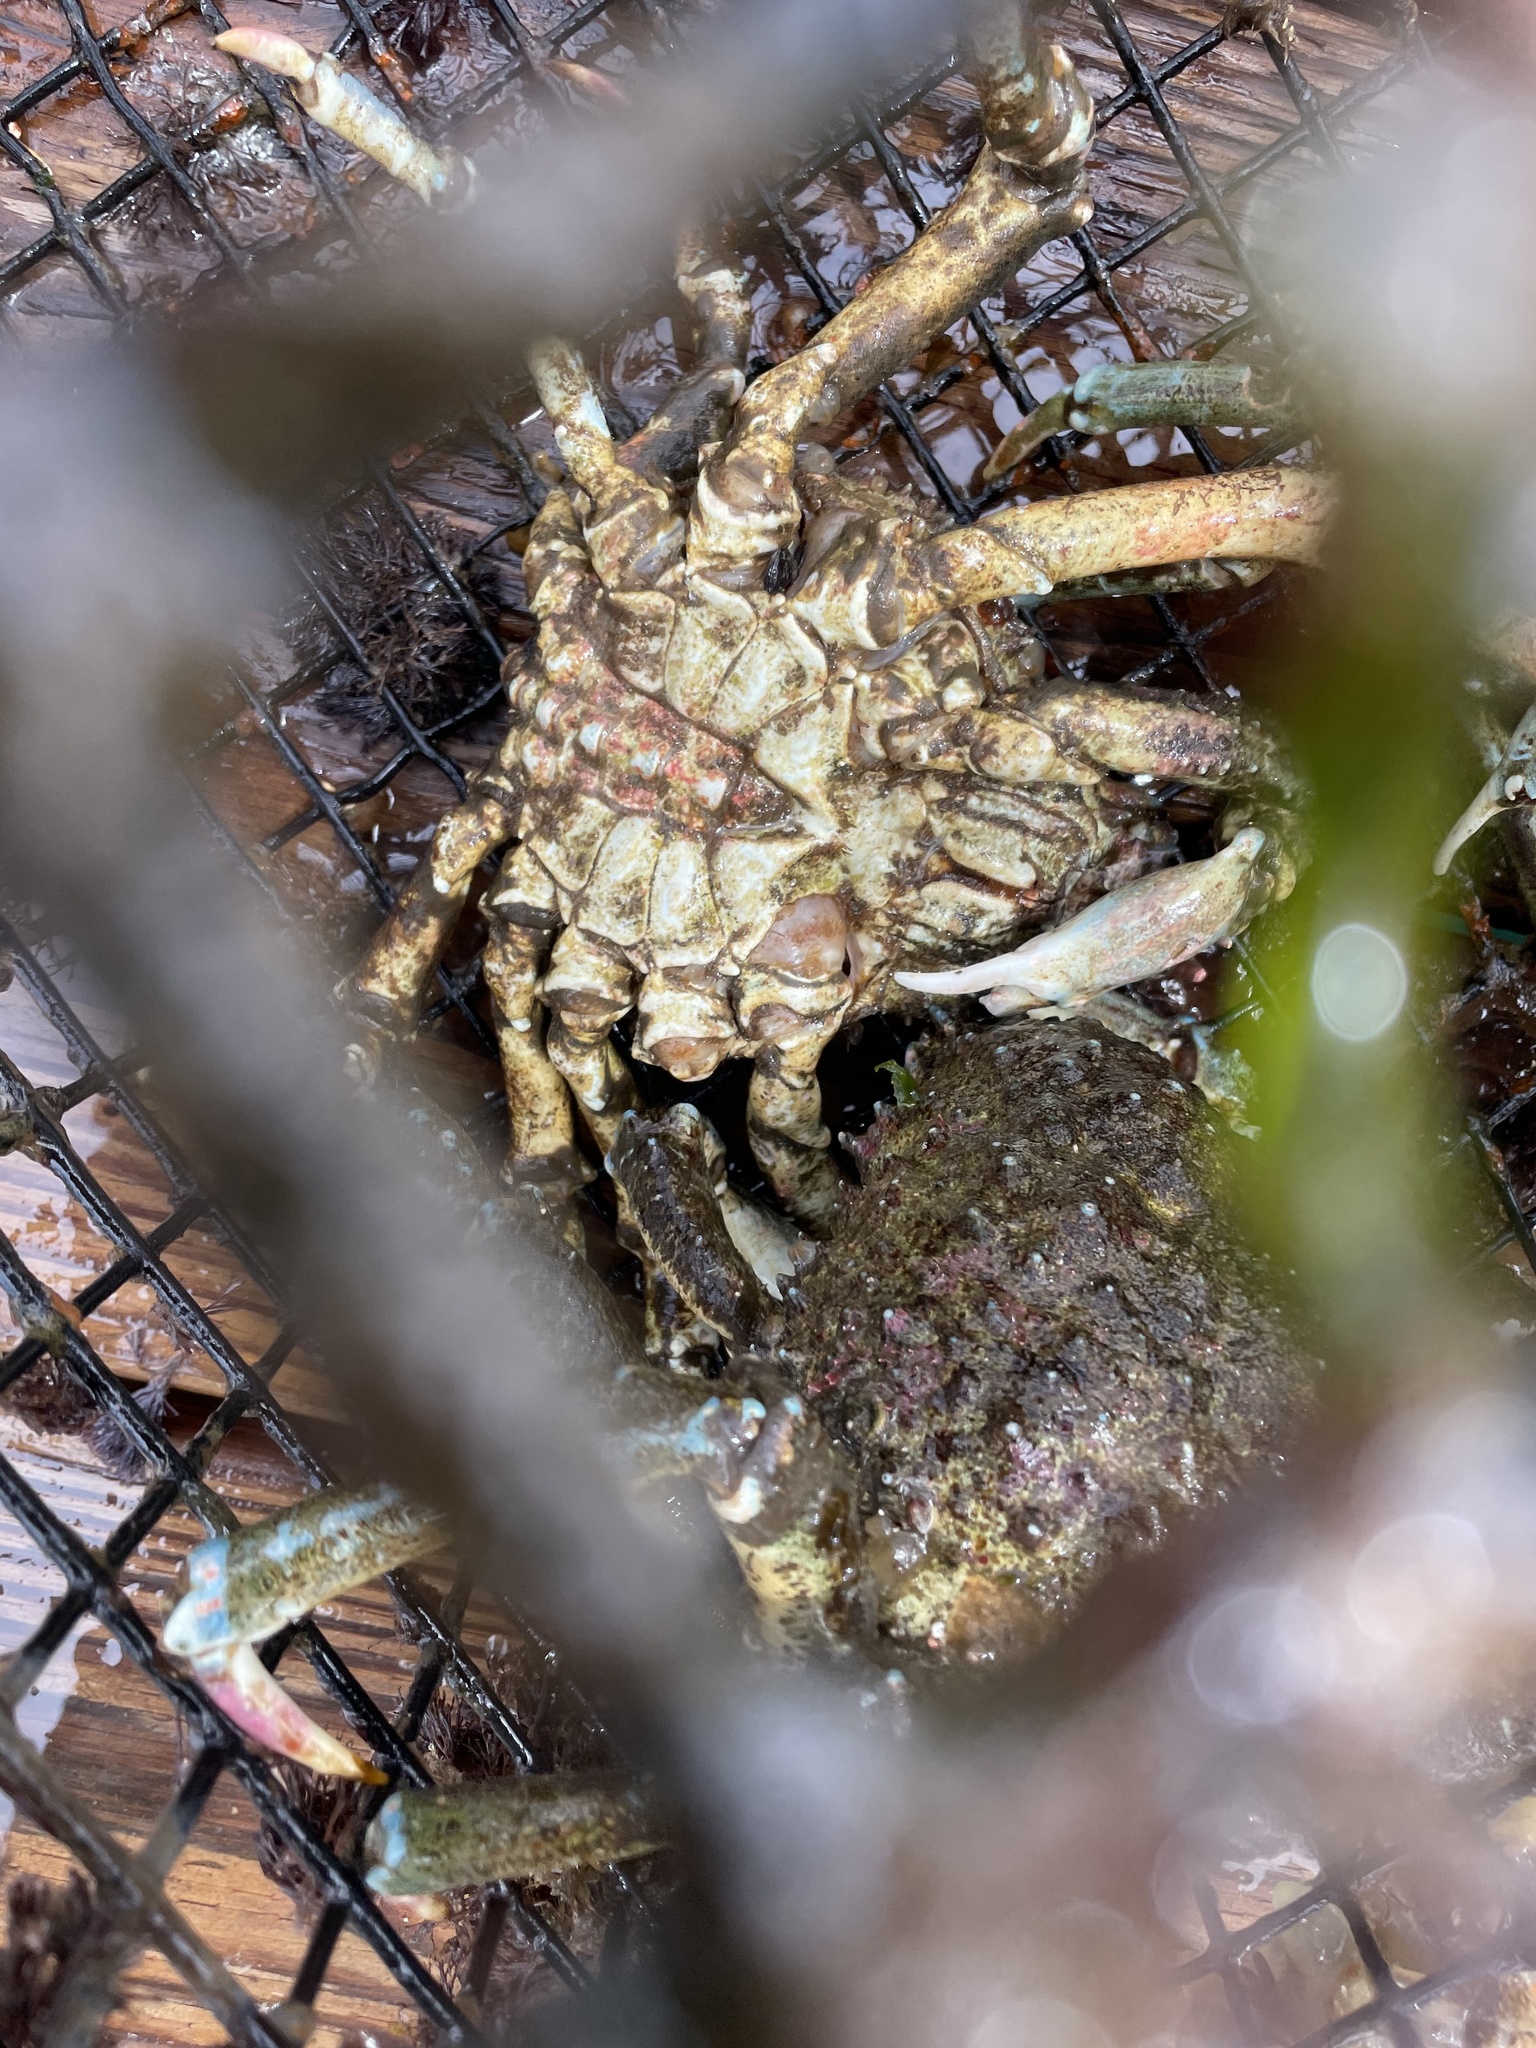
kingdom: Animalia
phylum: Arthropoda
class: Malacostraca
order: Decapoda
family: Epialtidae
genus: Loxorhynchus
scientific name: Loxorhynchus grandis
